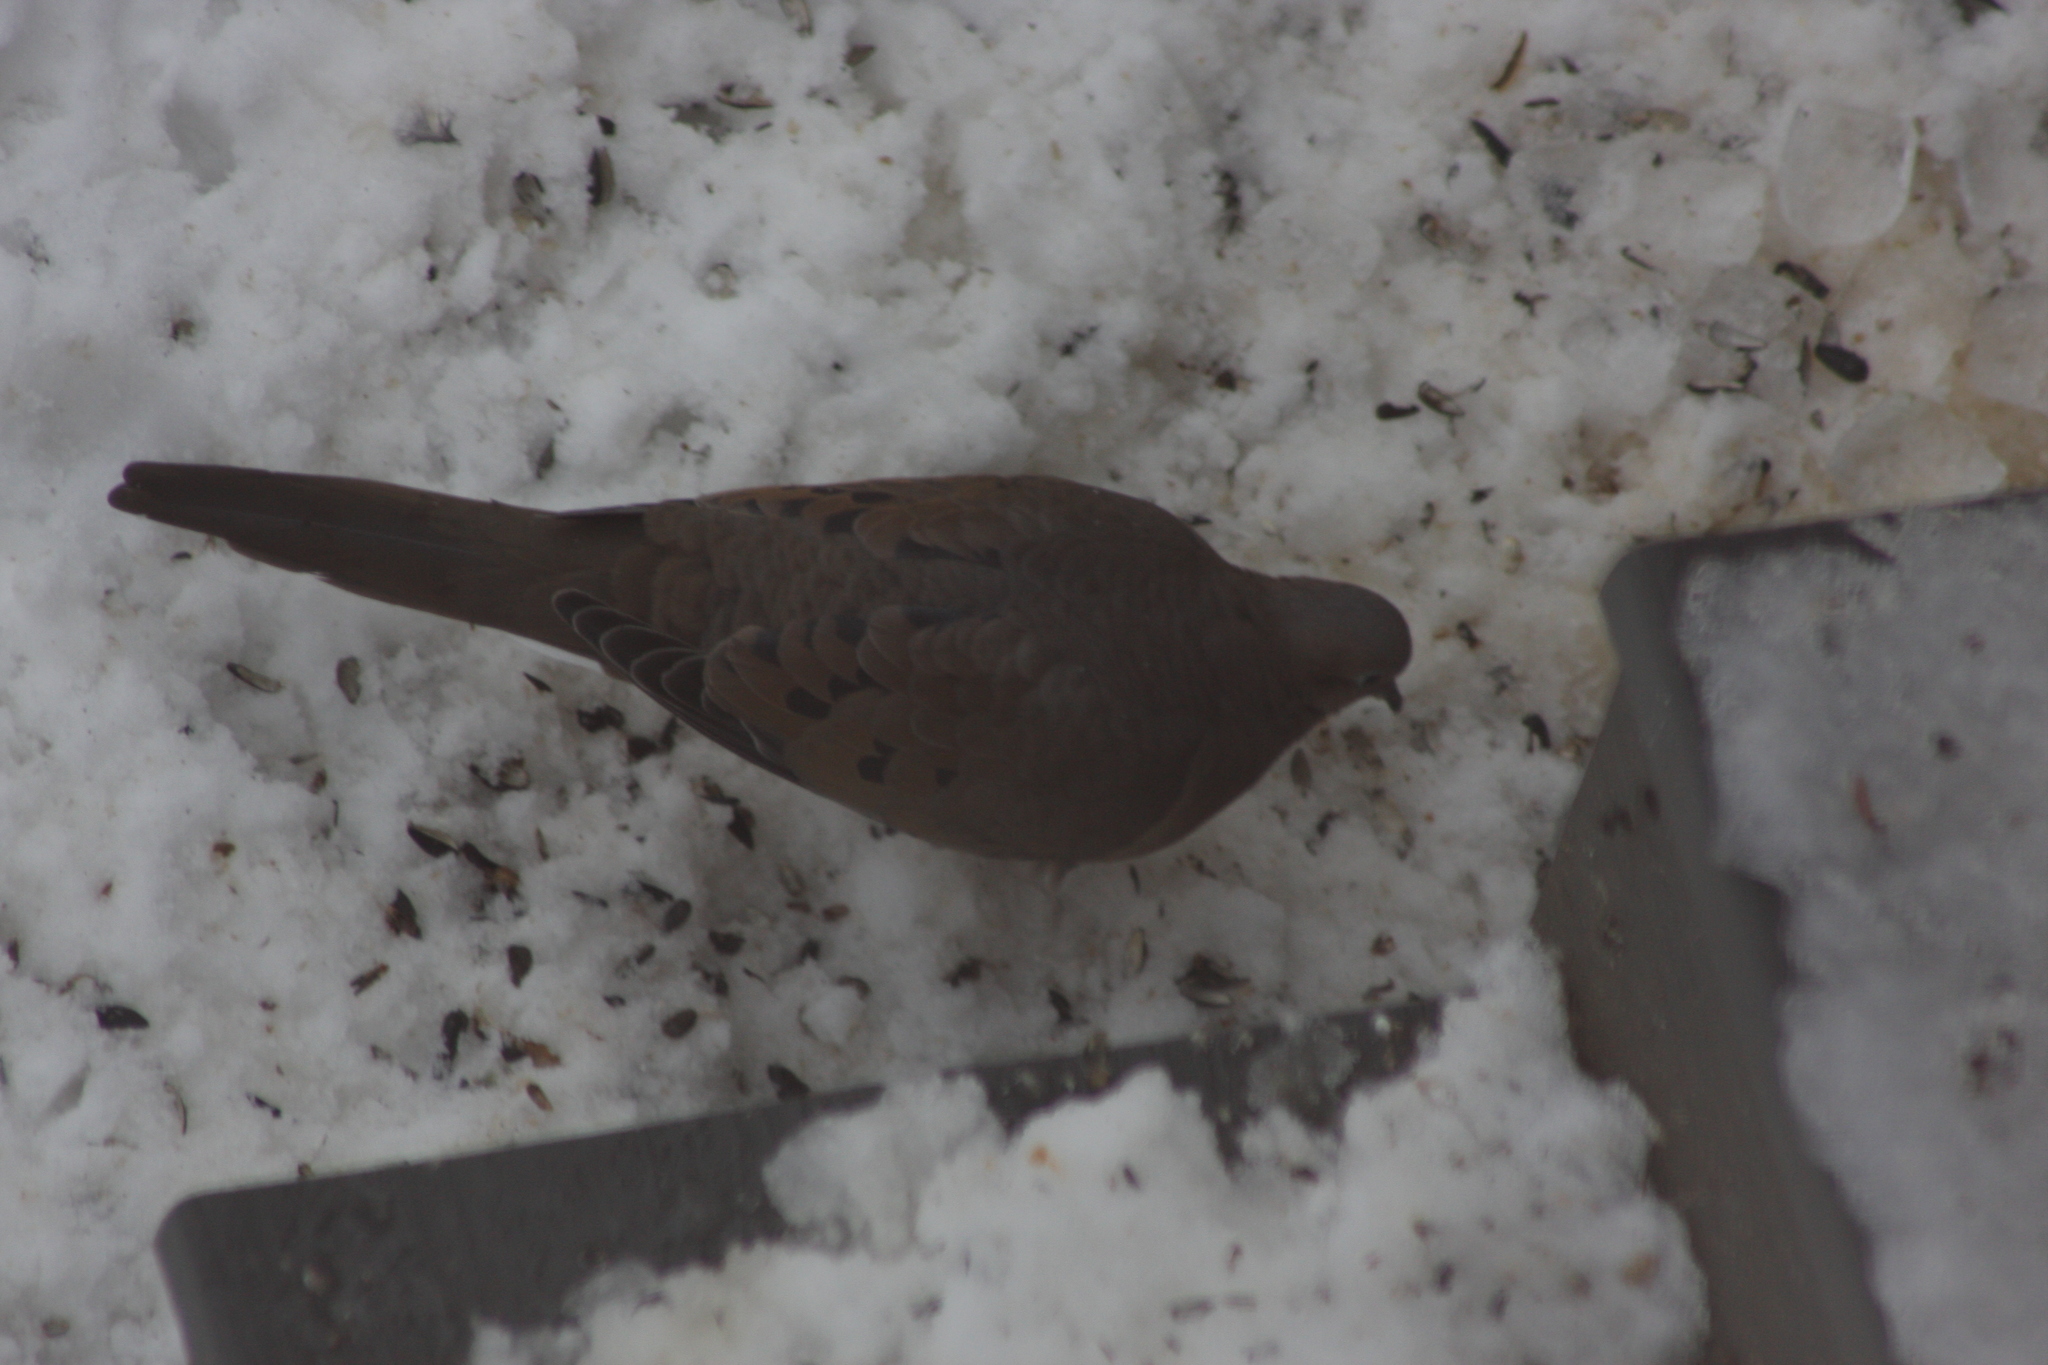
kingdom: Animalia
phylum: Chordata
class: Aves
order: Columbiformes
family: Columbidae
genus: Zenaida
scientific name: Zenaida macroura
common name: Mourning dove
